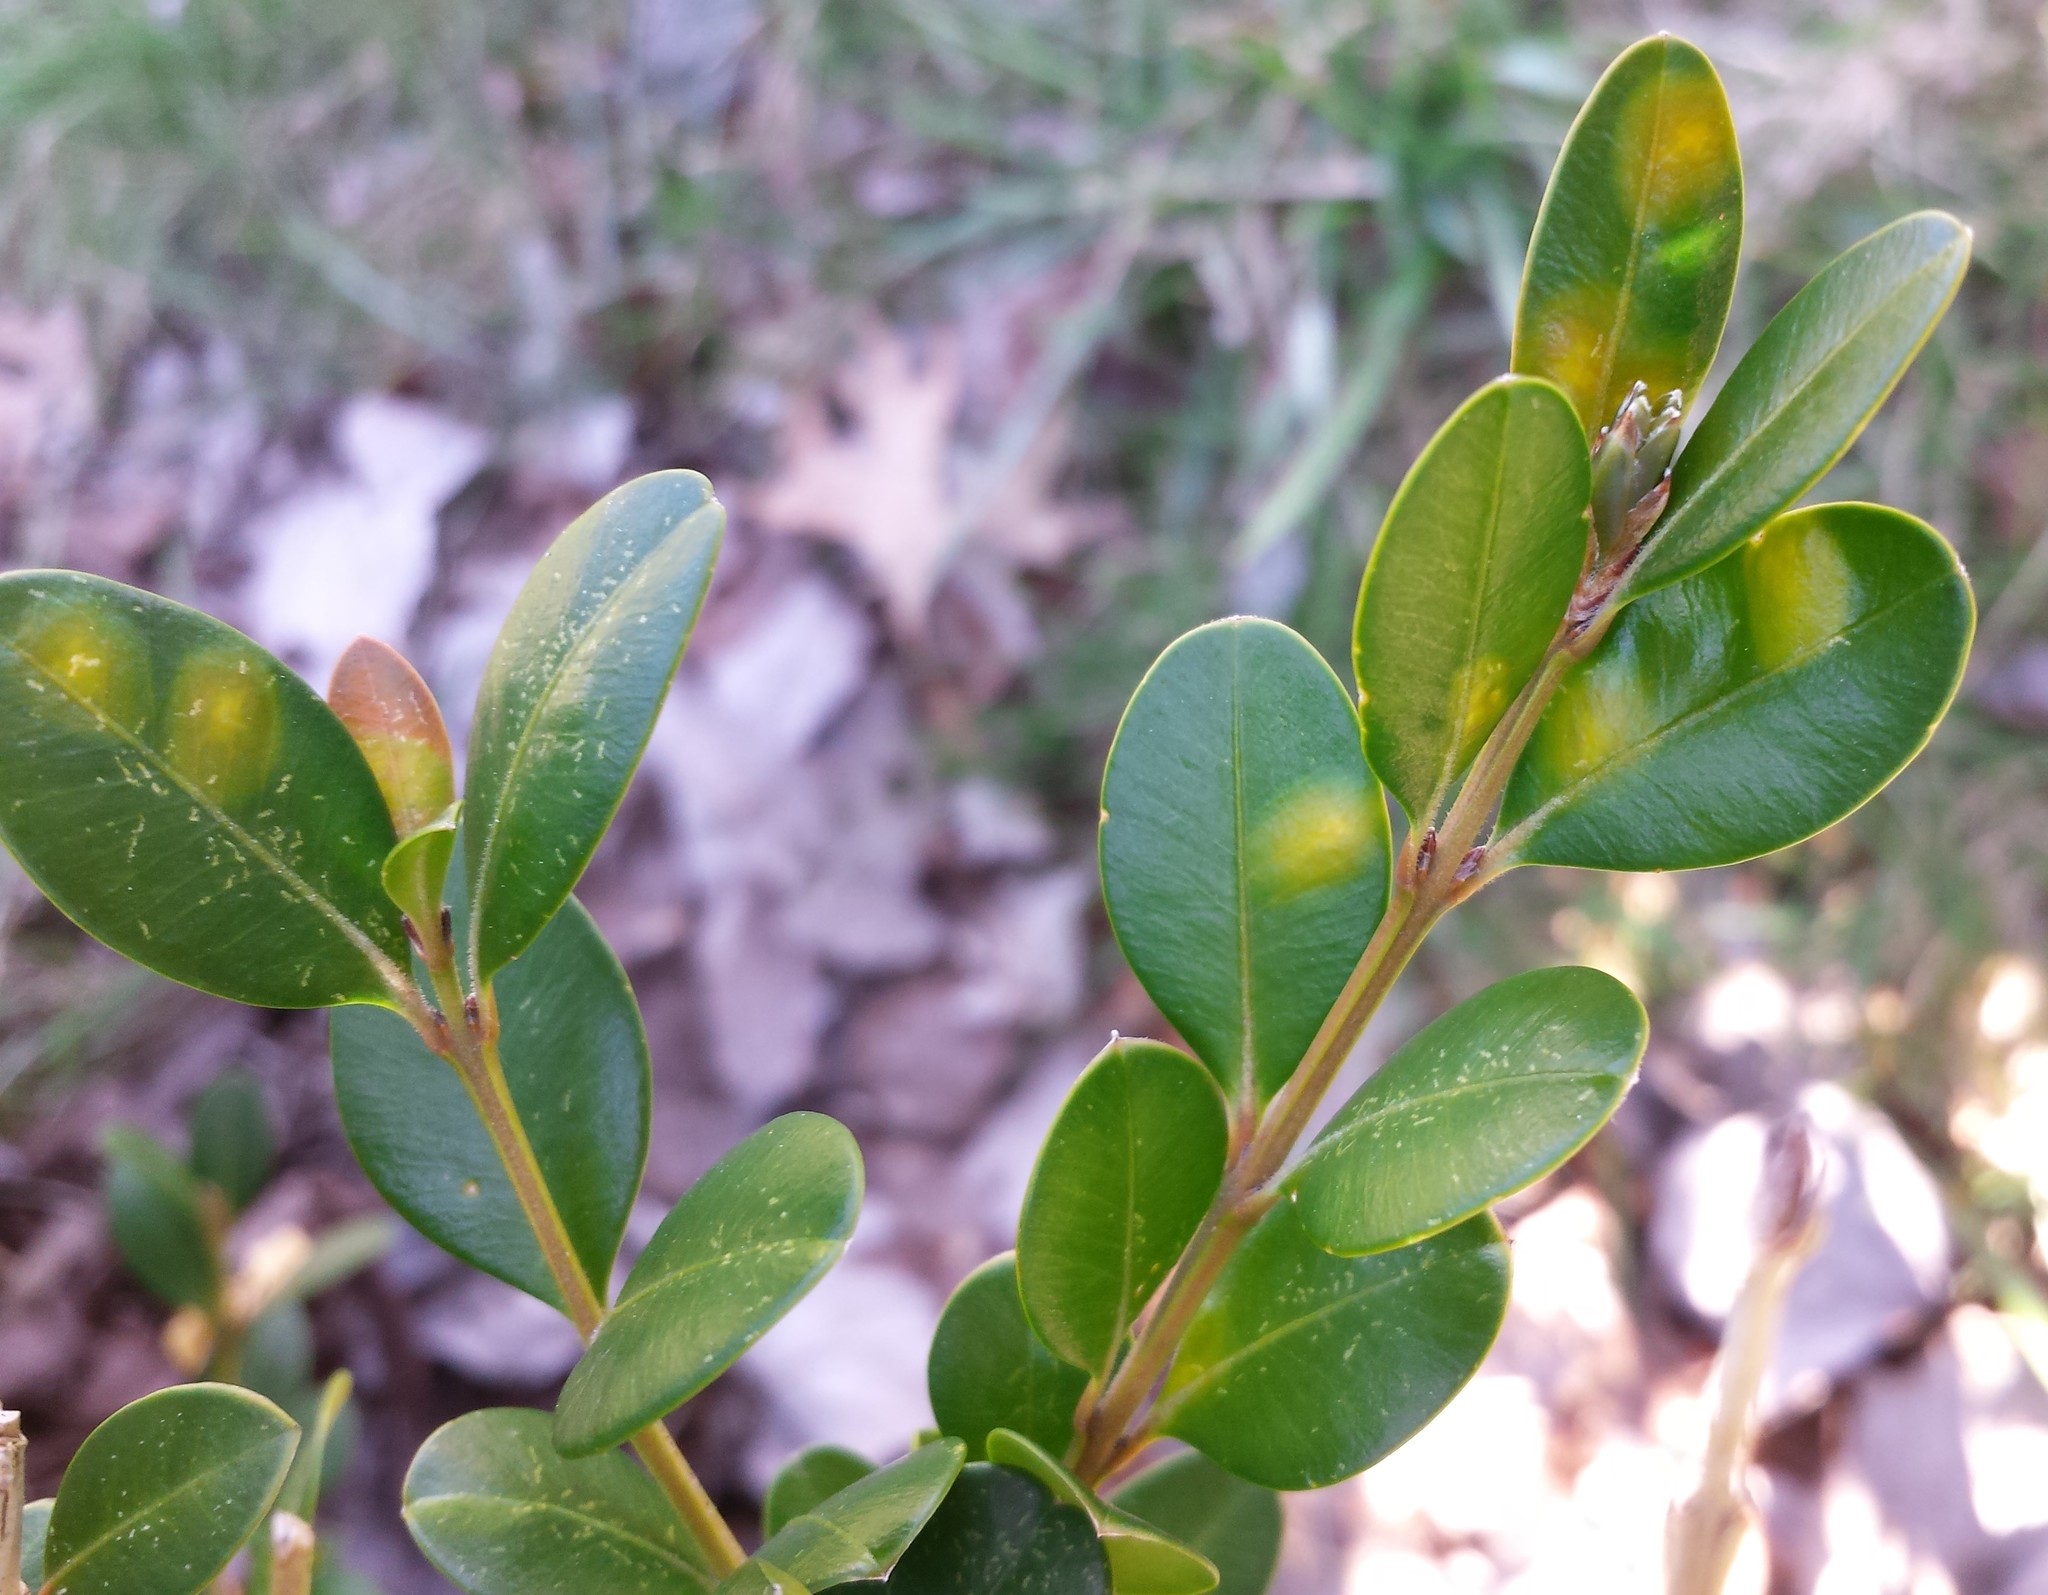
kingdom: Animalia
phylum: Arthropoda
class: Insecta
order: Diptera
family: Cecidomyiidae
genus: Monarthropalpus
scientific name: Monarthropalpus flavus
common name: Boxwood leafminer
